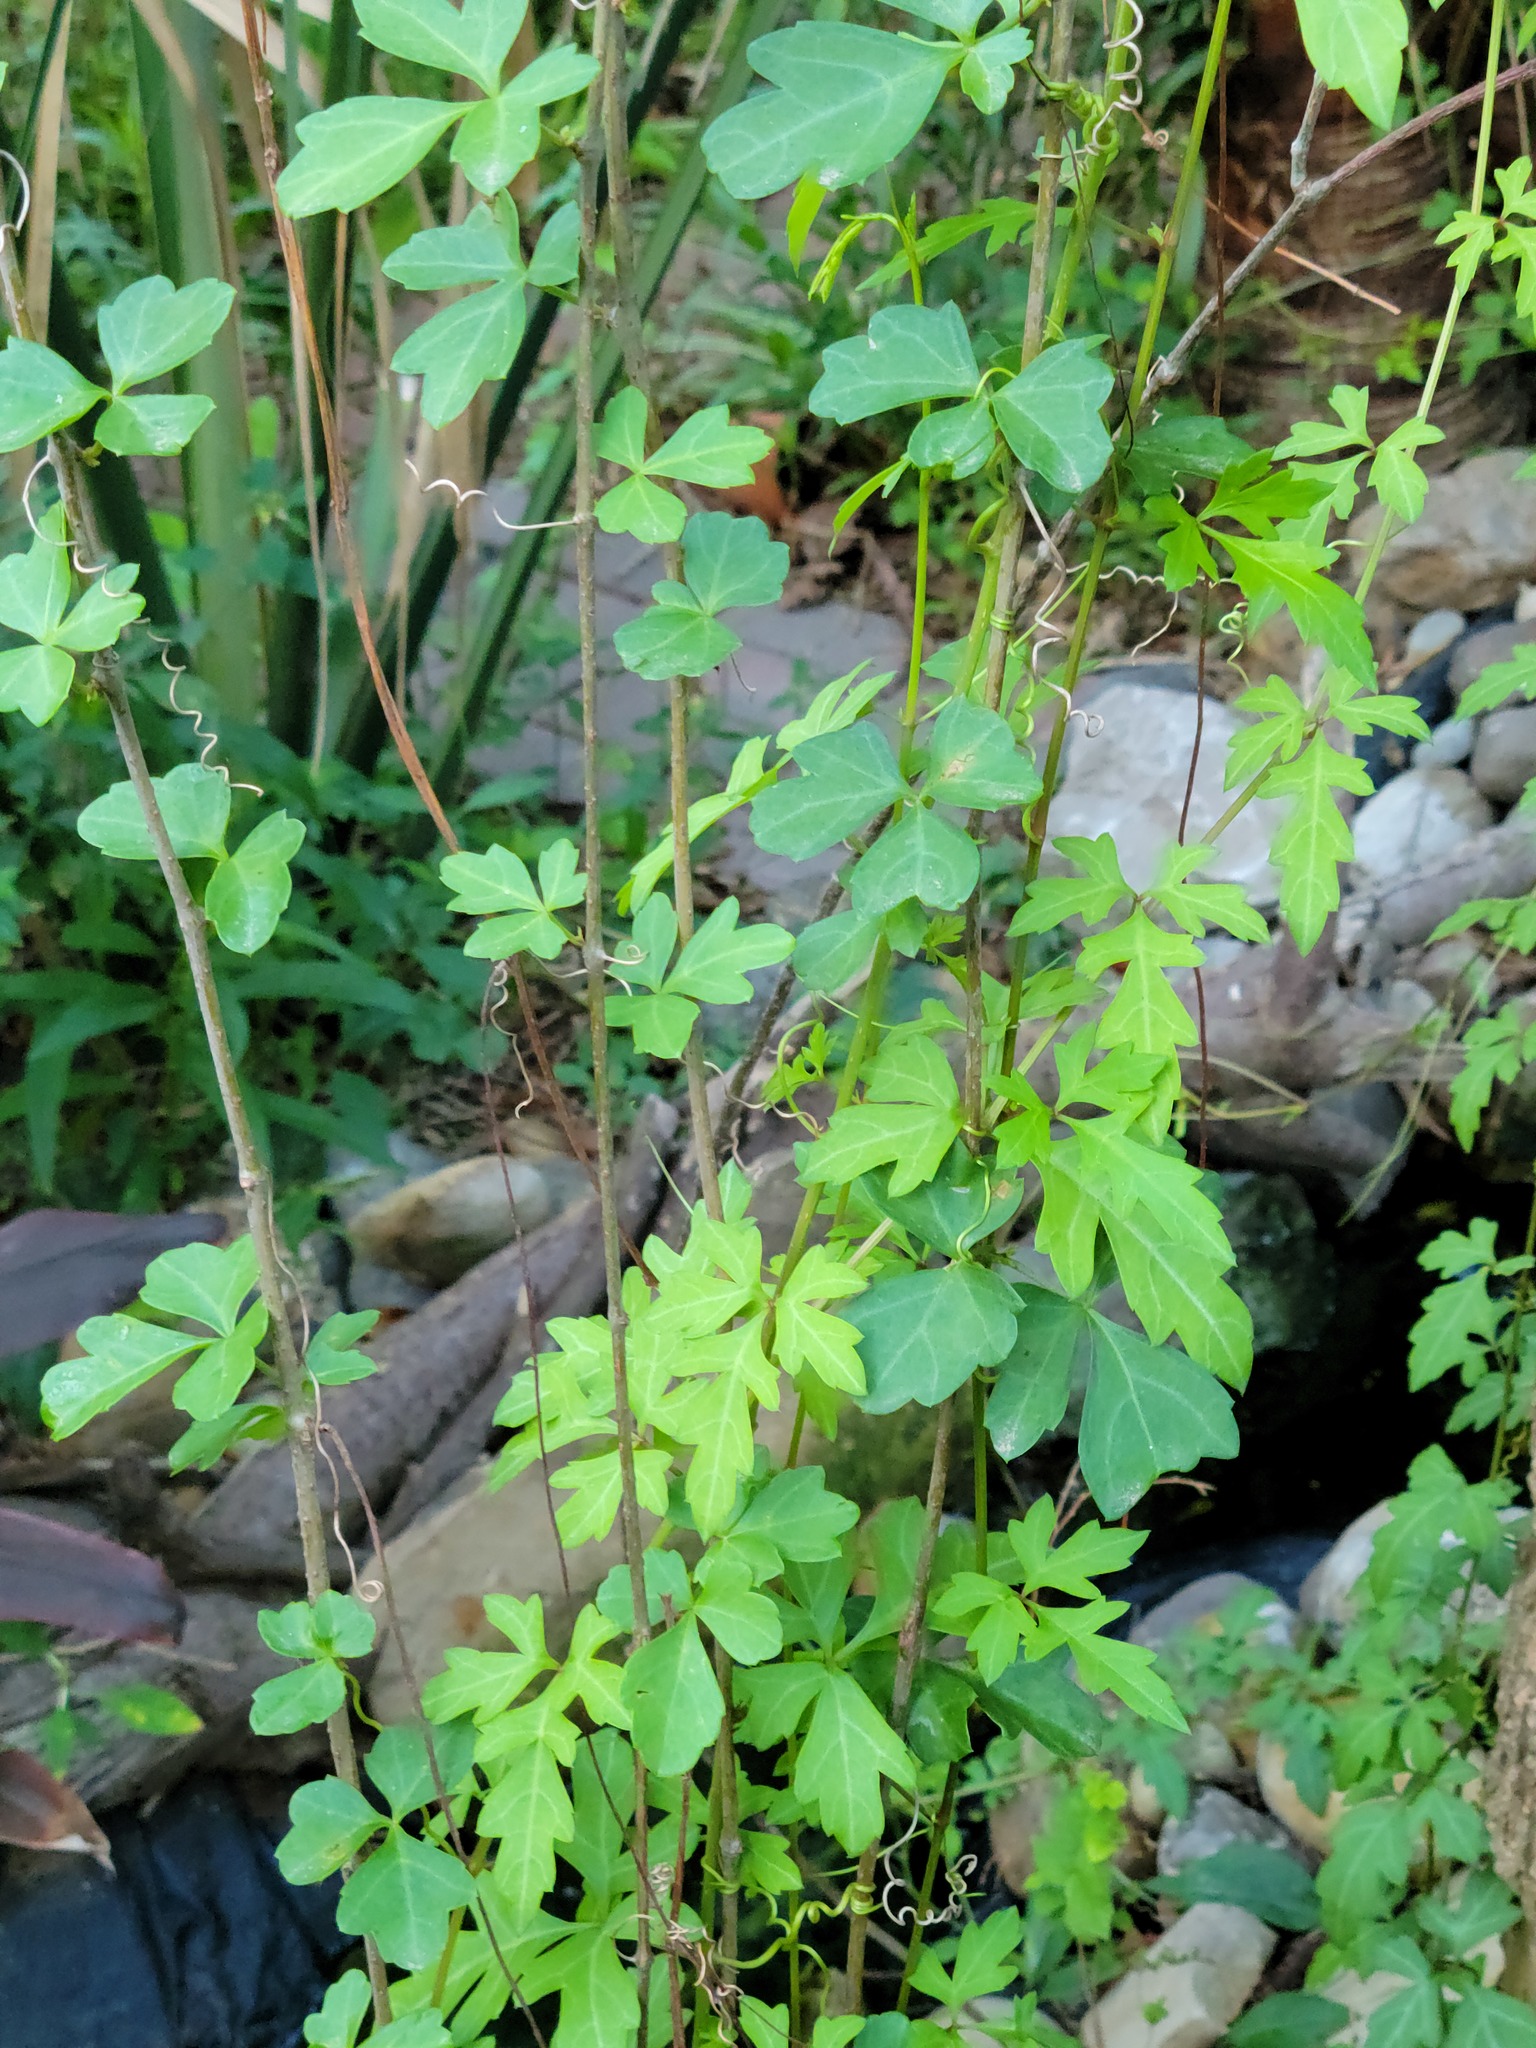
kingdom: Plantae
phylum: Tracheophyta
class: Magnoliopsida
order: Vitales
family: Vitaceae
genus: Cissus
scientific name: Cissus trifoliata
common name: Vine-sorrel
